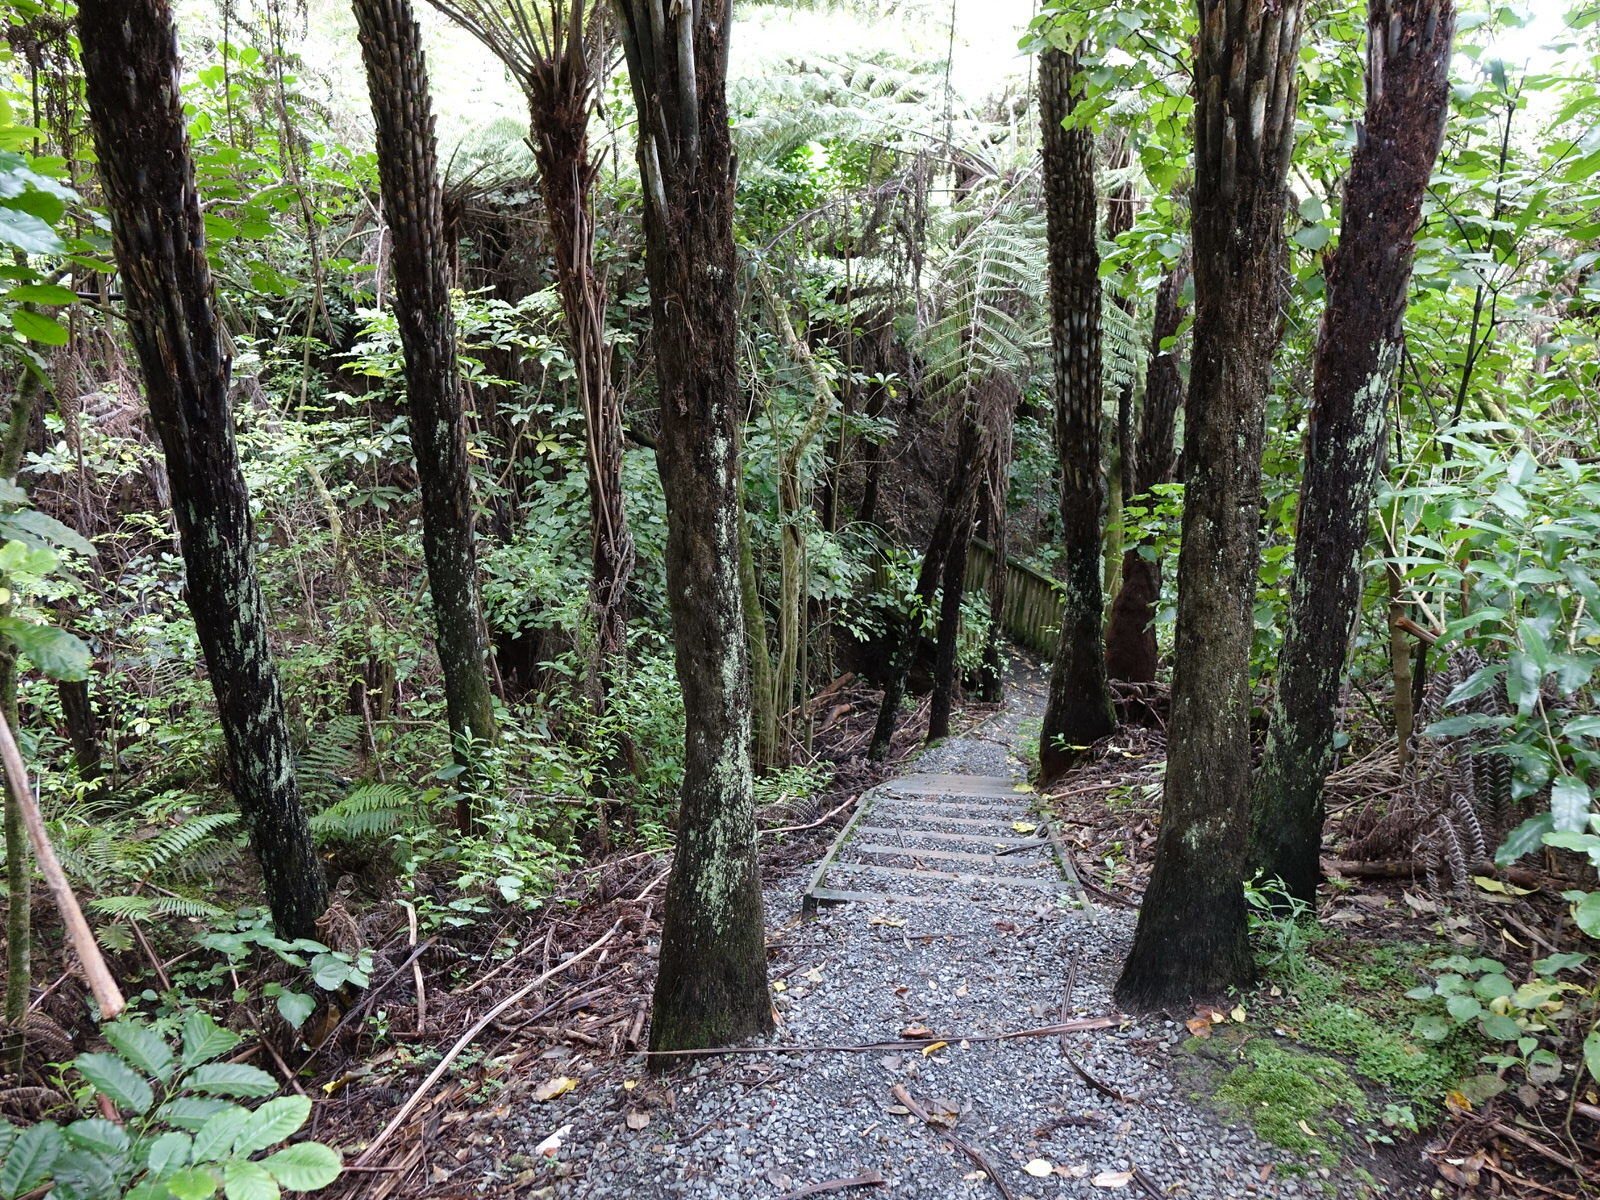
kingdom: Plantae
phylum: Tracheophyta
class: Polypodiopsida
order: Cyatheales
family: Cyatheaceae
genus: Alsophila
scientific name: Alsophila dealbata
